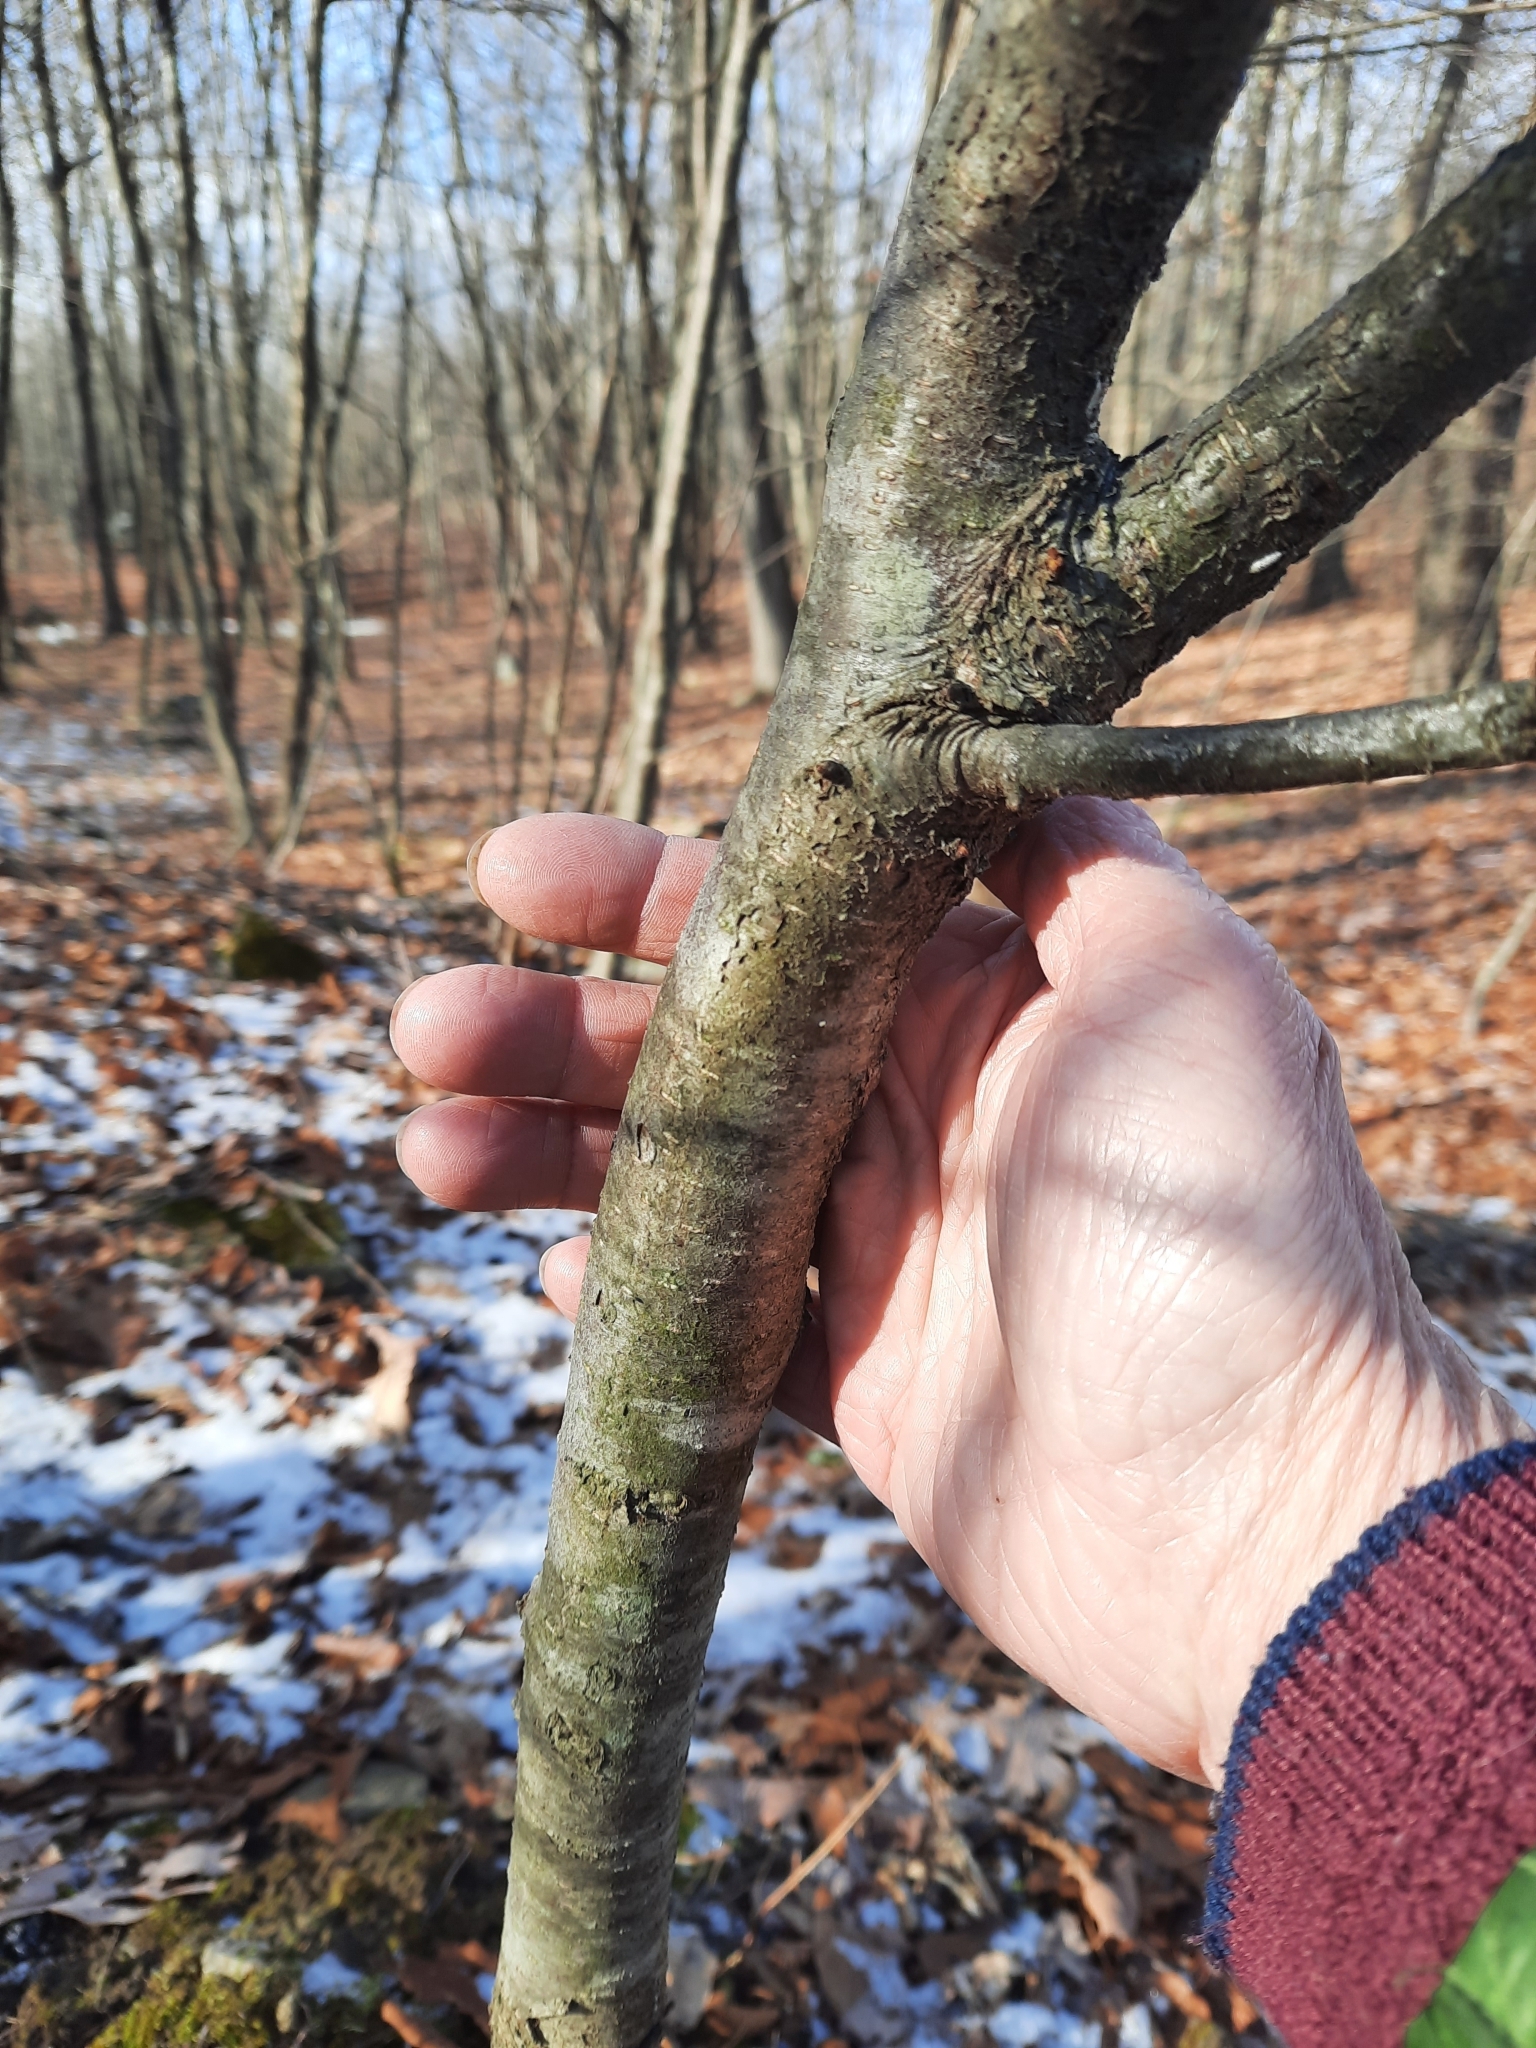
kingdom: Plantae
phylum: Tracheophyta
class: Magnoliopsida
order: Fagales
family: Betulaceae
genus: Betula
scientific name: Betula lenta
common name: Black birch
